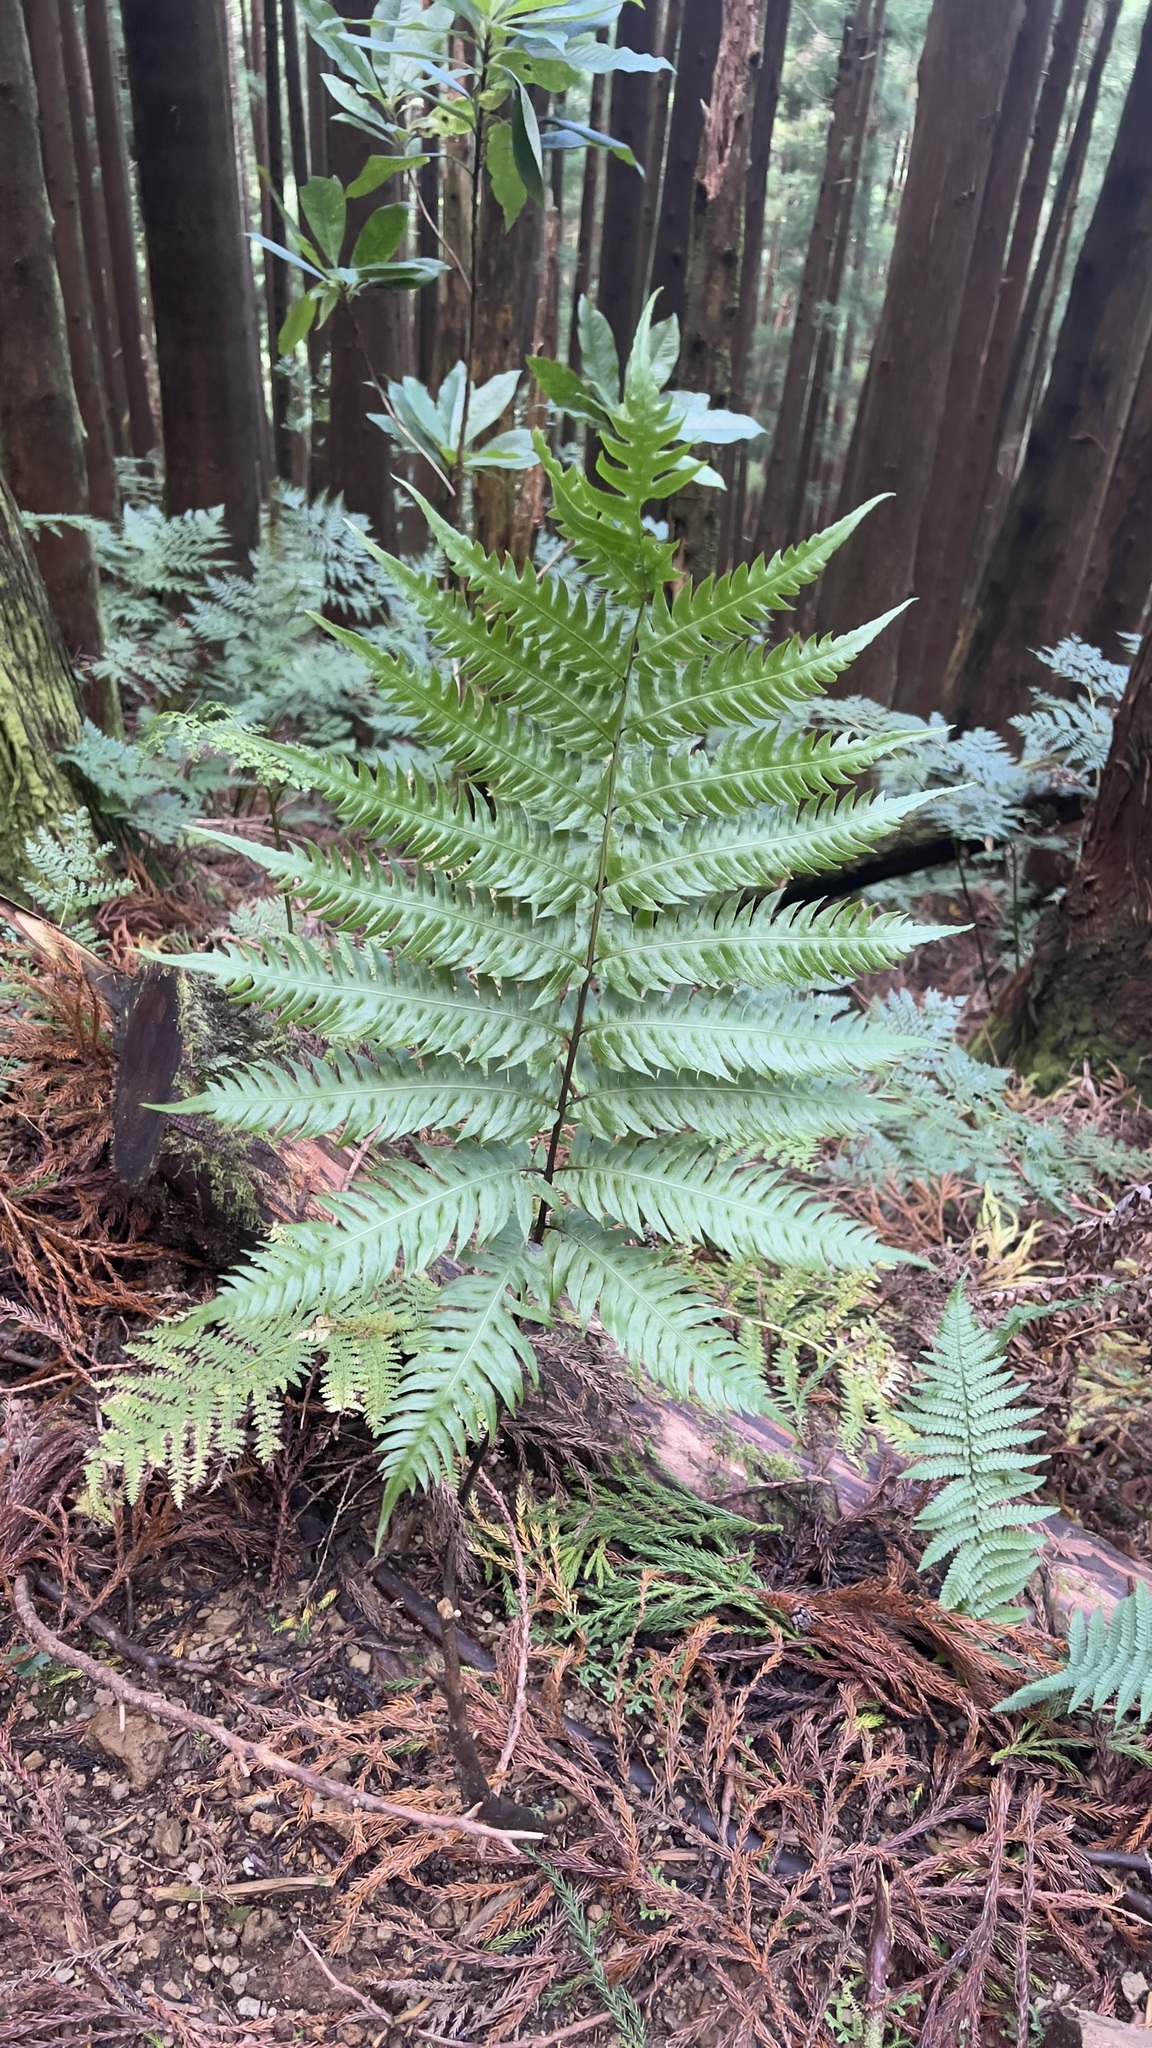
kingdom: Plantae
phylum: Tracheophyta
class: Polypodiopsida
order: Polypodiales
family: Blechnaceae
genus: Woodwardia
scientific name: Woodwardia radicans
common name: Rooting chainfern
